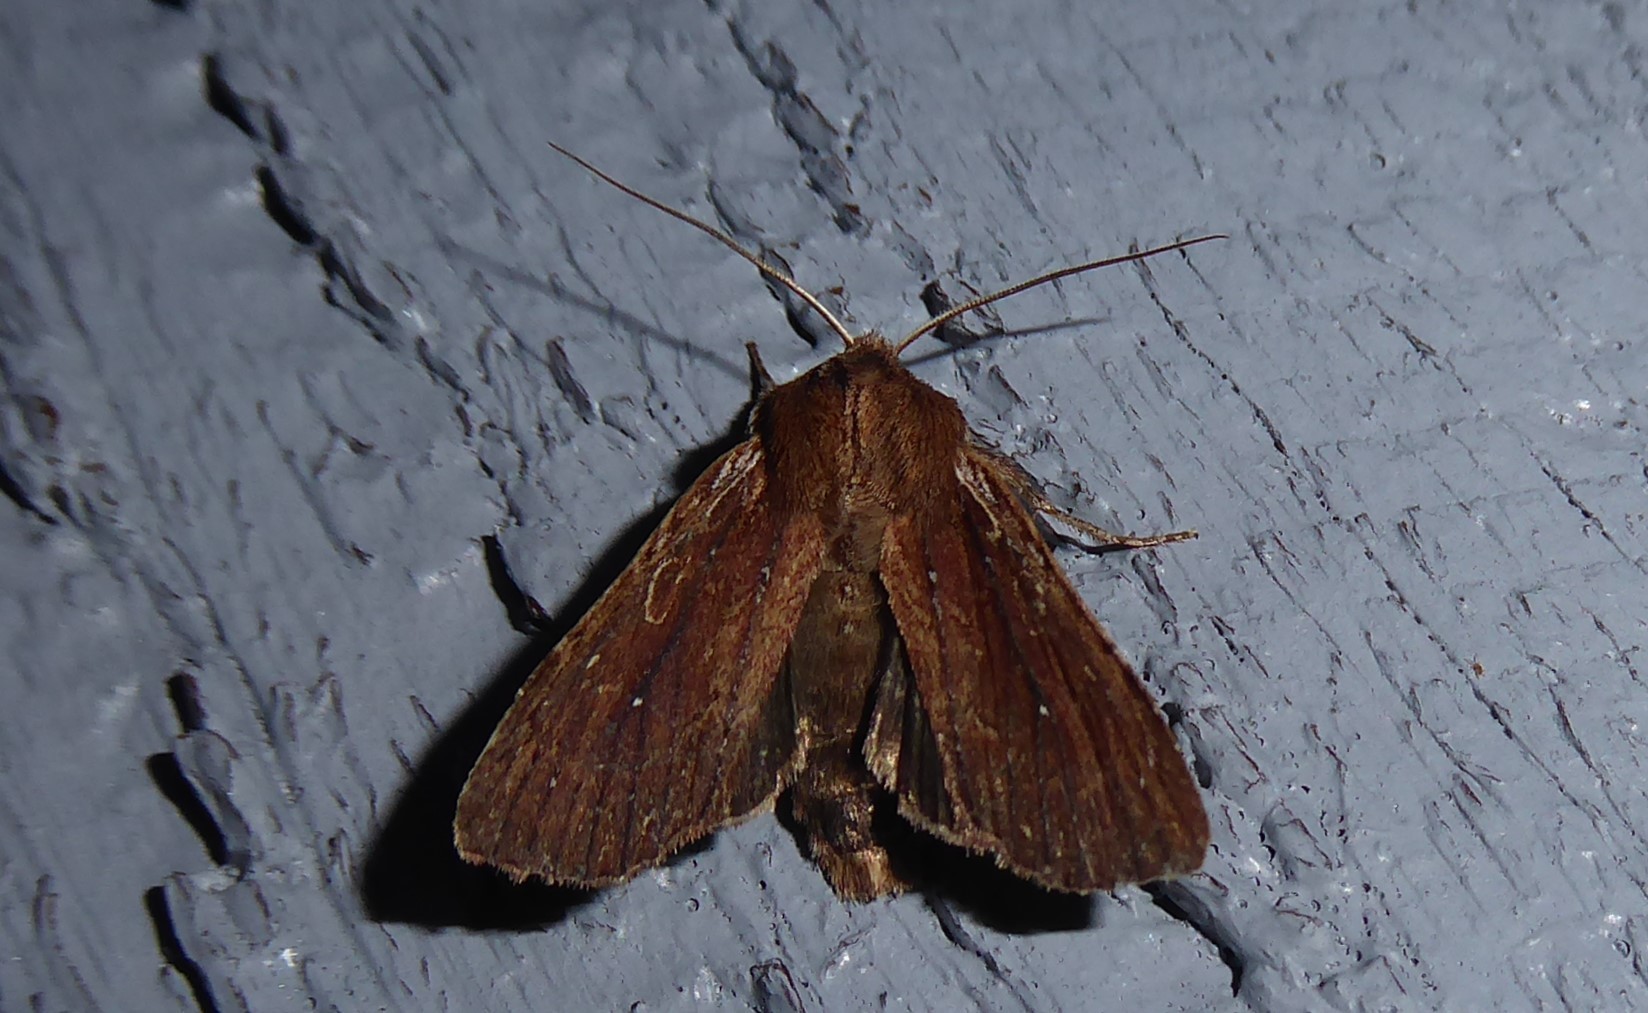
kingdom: Animalia
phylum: Arthropoda
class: Insecta
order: Lepidoptera
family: Noctuidae
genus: Ichneutica
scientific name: Ichneutica
